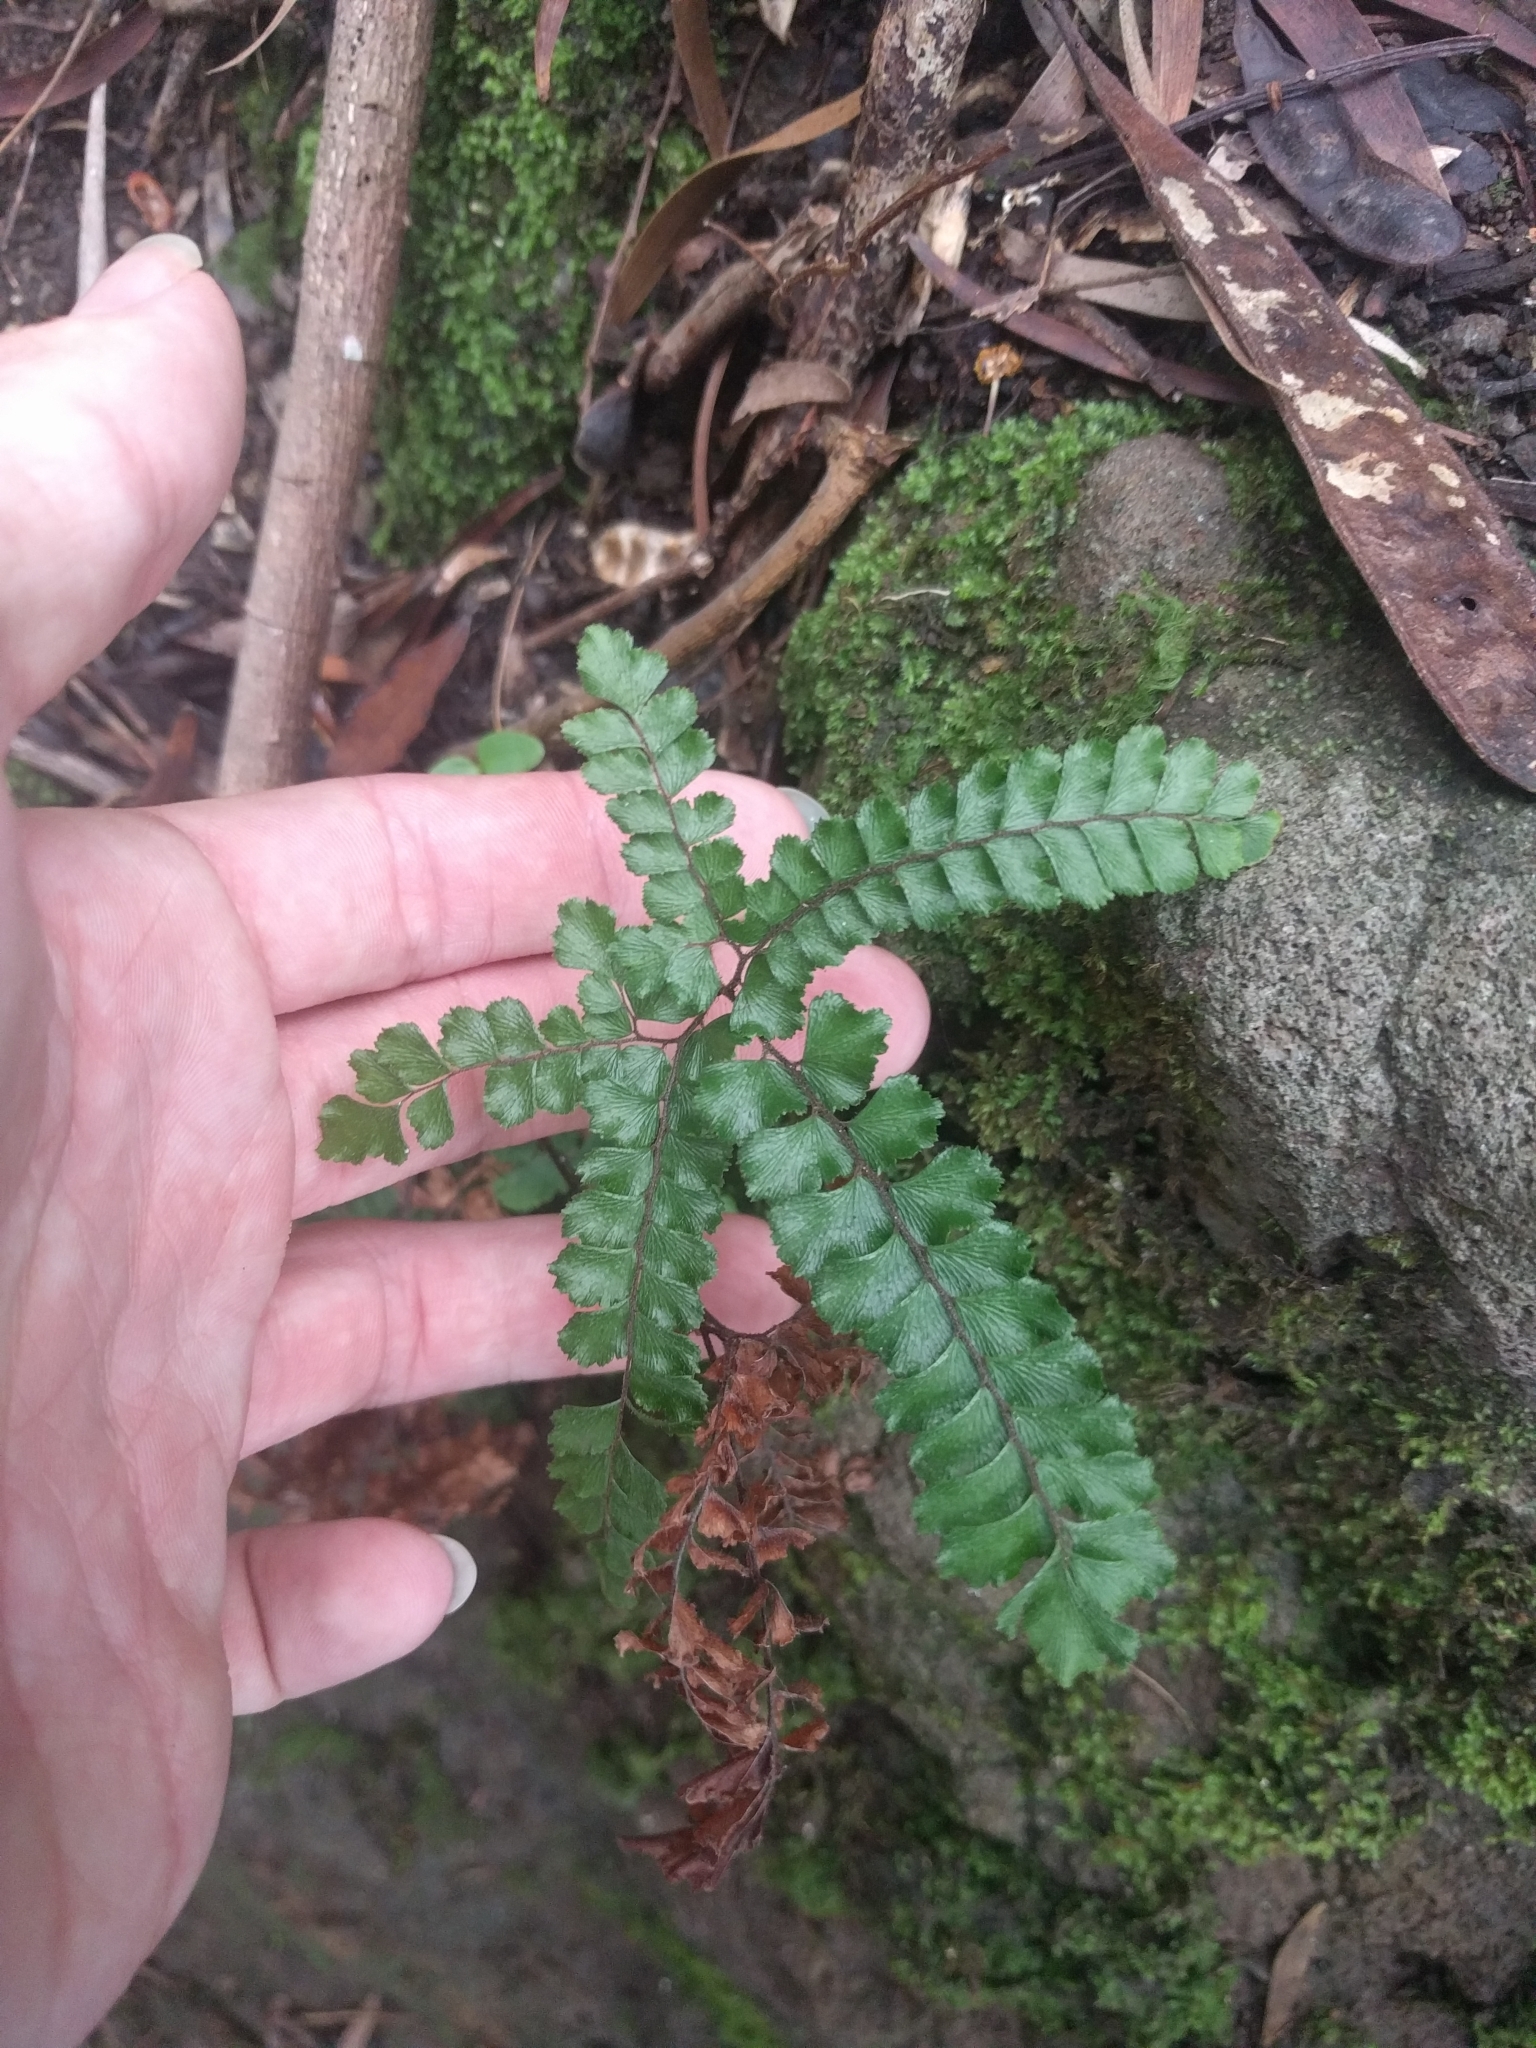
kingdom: Plantae
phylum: Tracheophyta
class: Polypodiopsida
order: Polypodiales
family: Pteridaceae
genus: Adiantum
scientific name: Adiantum hispidulum
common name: Rough maidenhair
